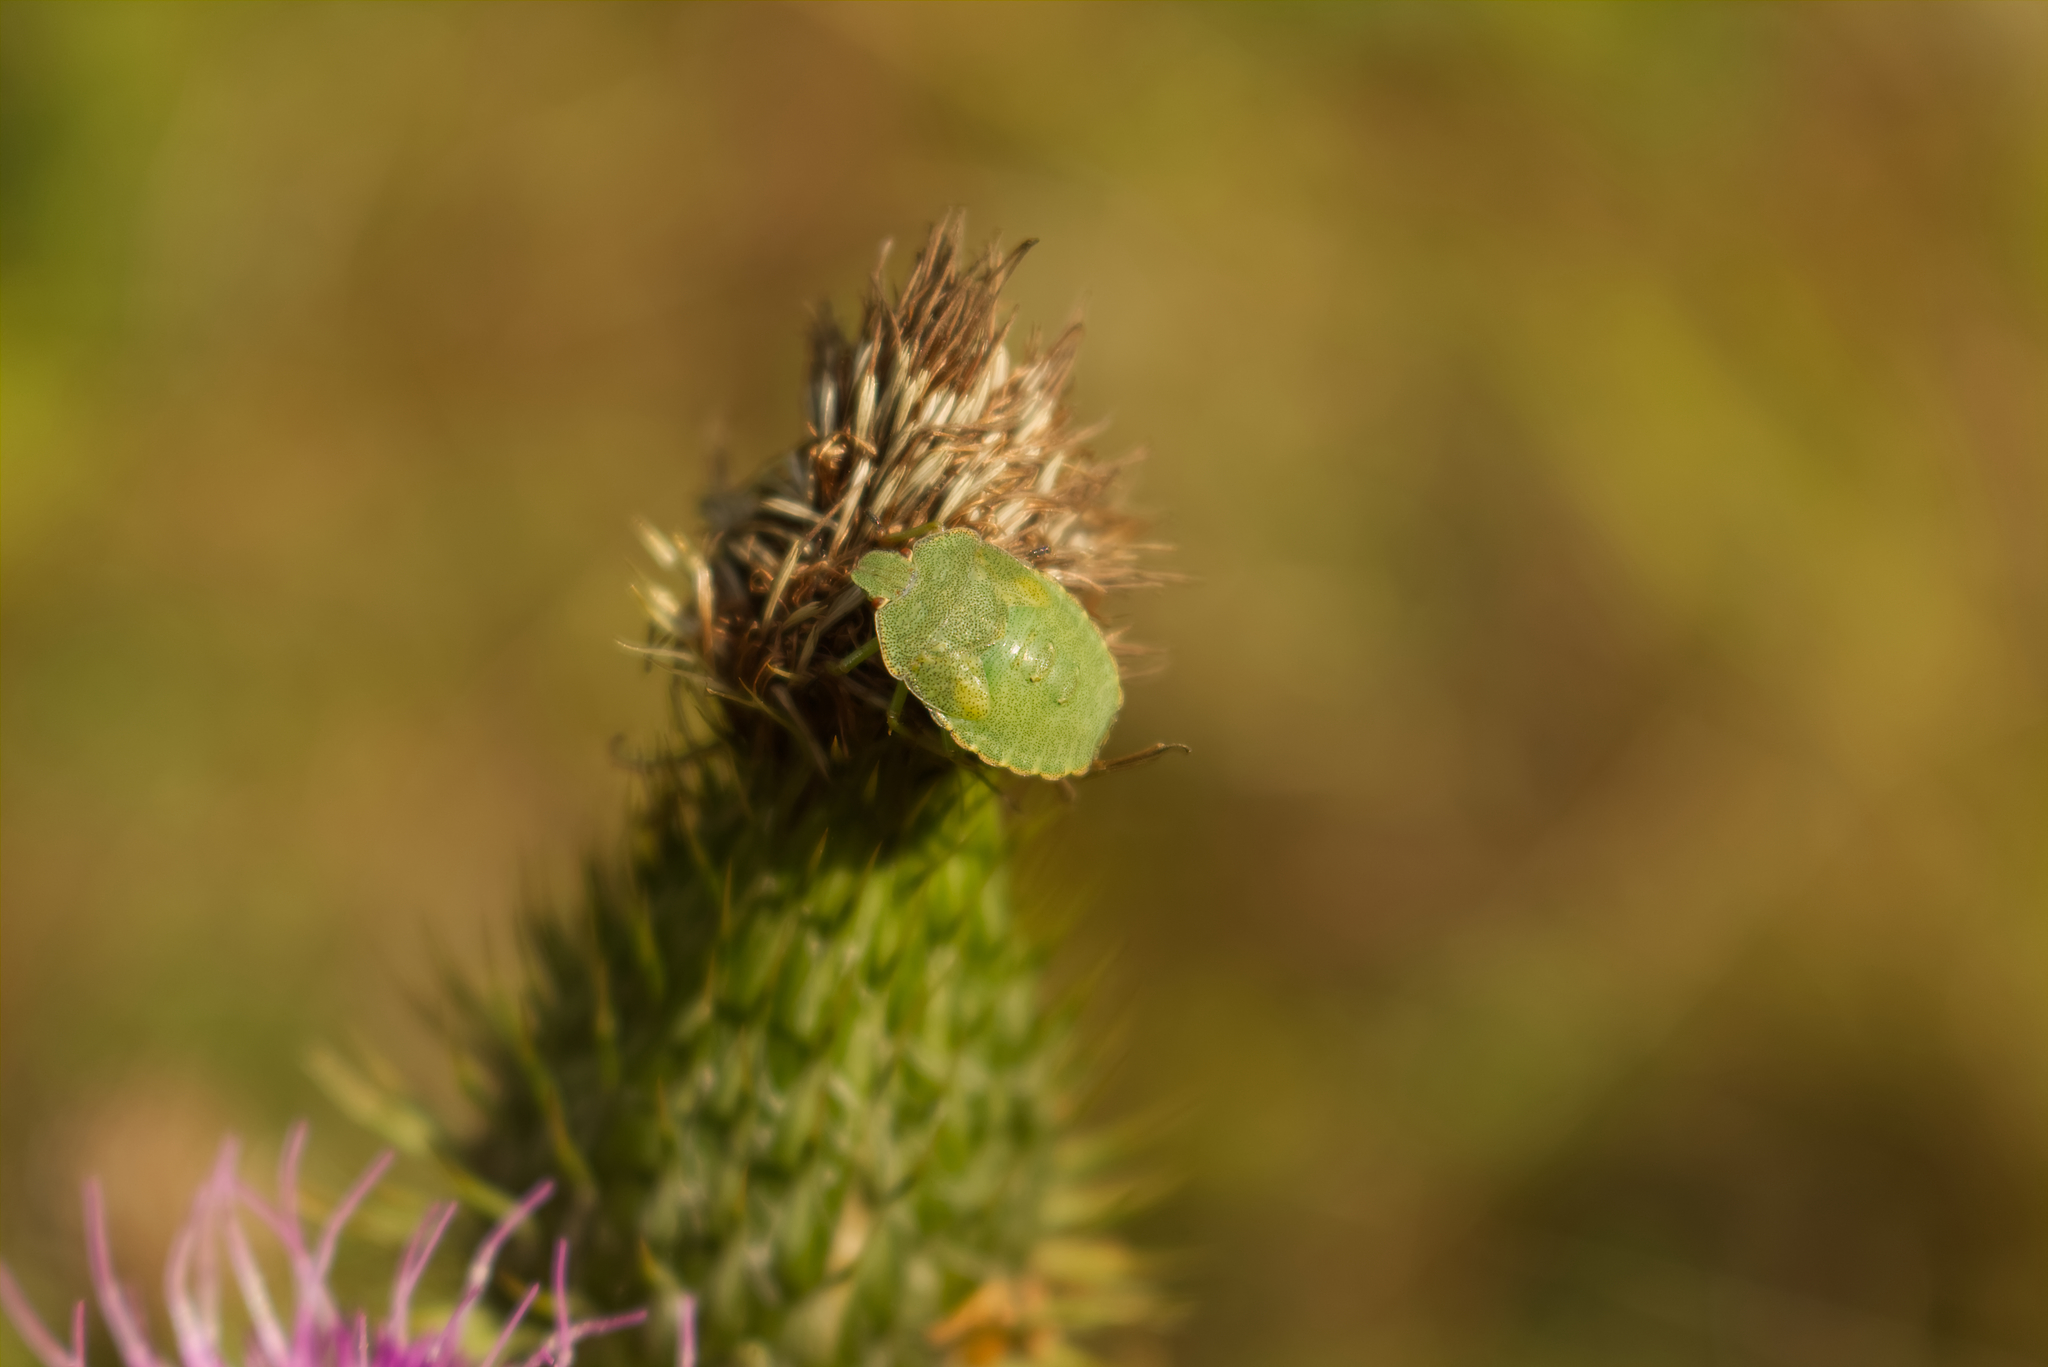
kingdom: Animalia
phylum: Arthropoda
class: Insecta
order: Hemiptera
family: Pentatomidae
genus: Palomena
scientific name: Palomena prasina
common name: Green shieldbug
